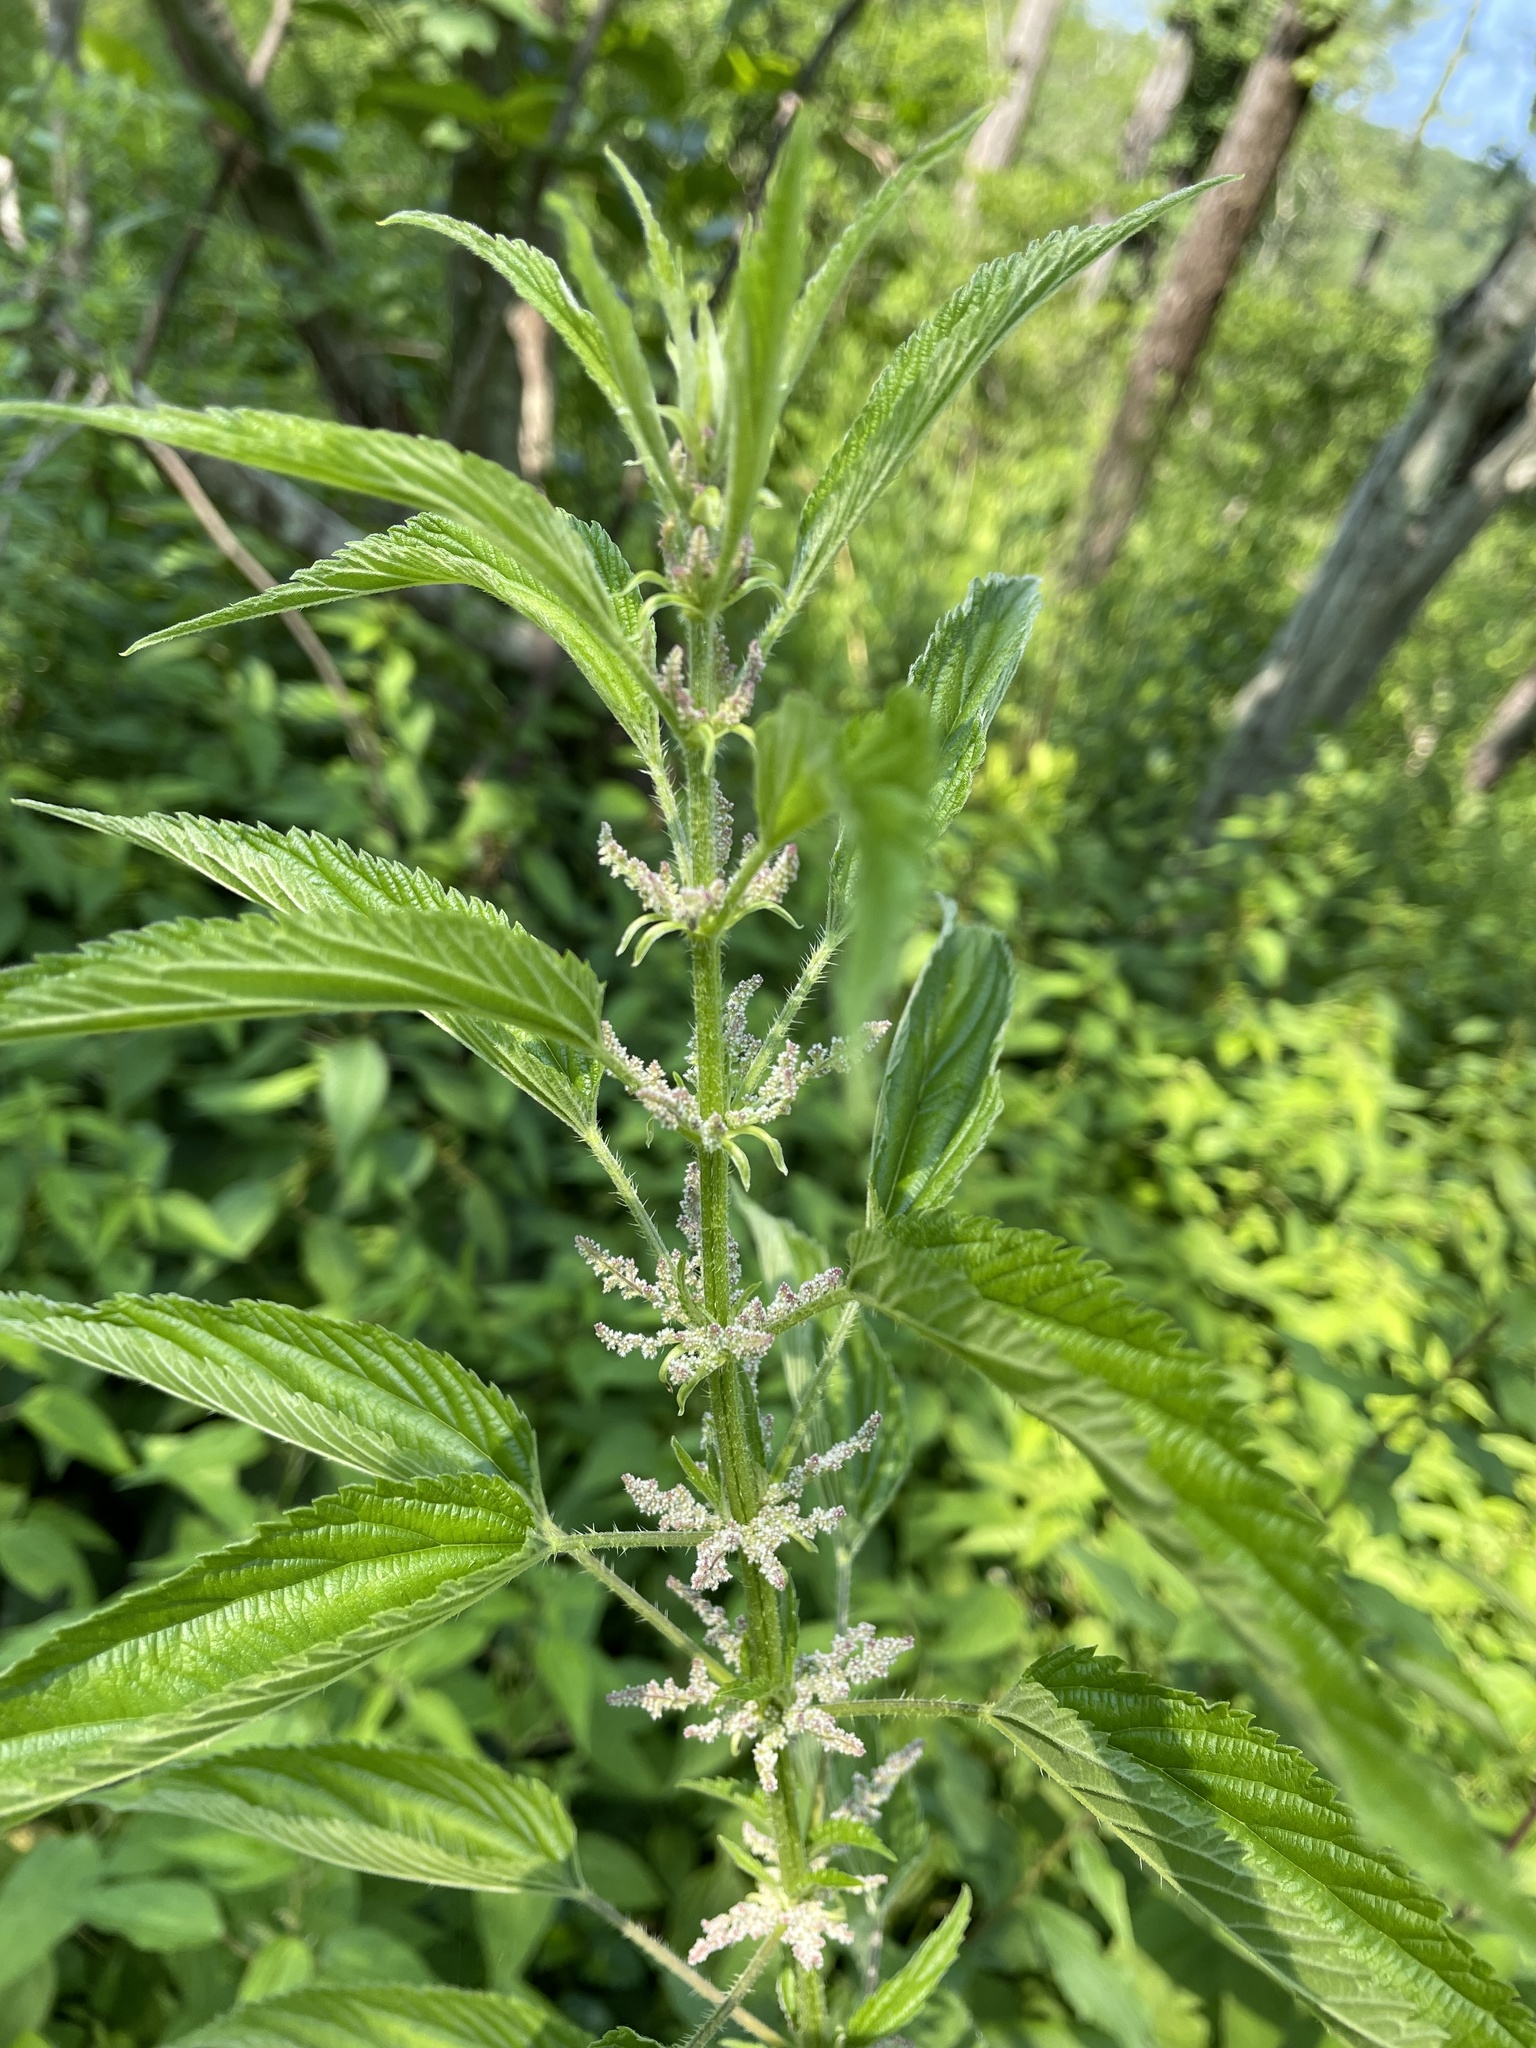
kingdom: Plantae
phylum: Tracheophyta
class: Magnoliopsida
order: Rosales
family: Urticaceae
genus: Urtica
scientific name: Urtica dioica
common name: Common nettle
